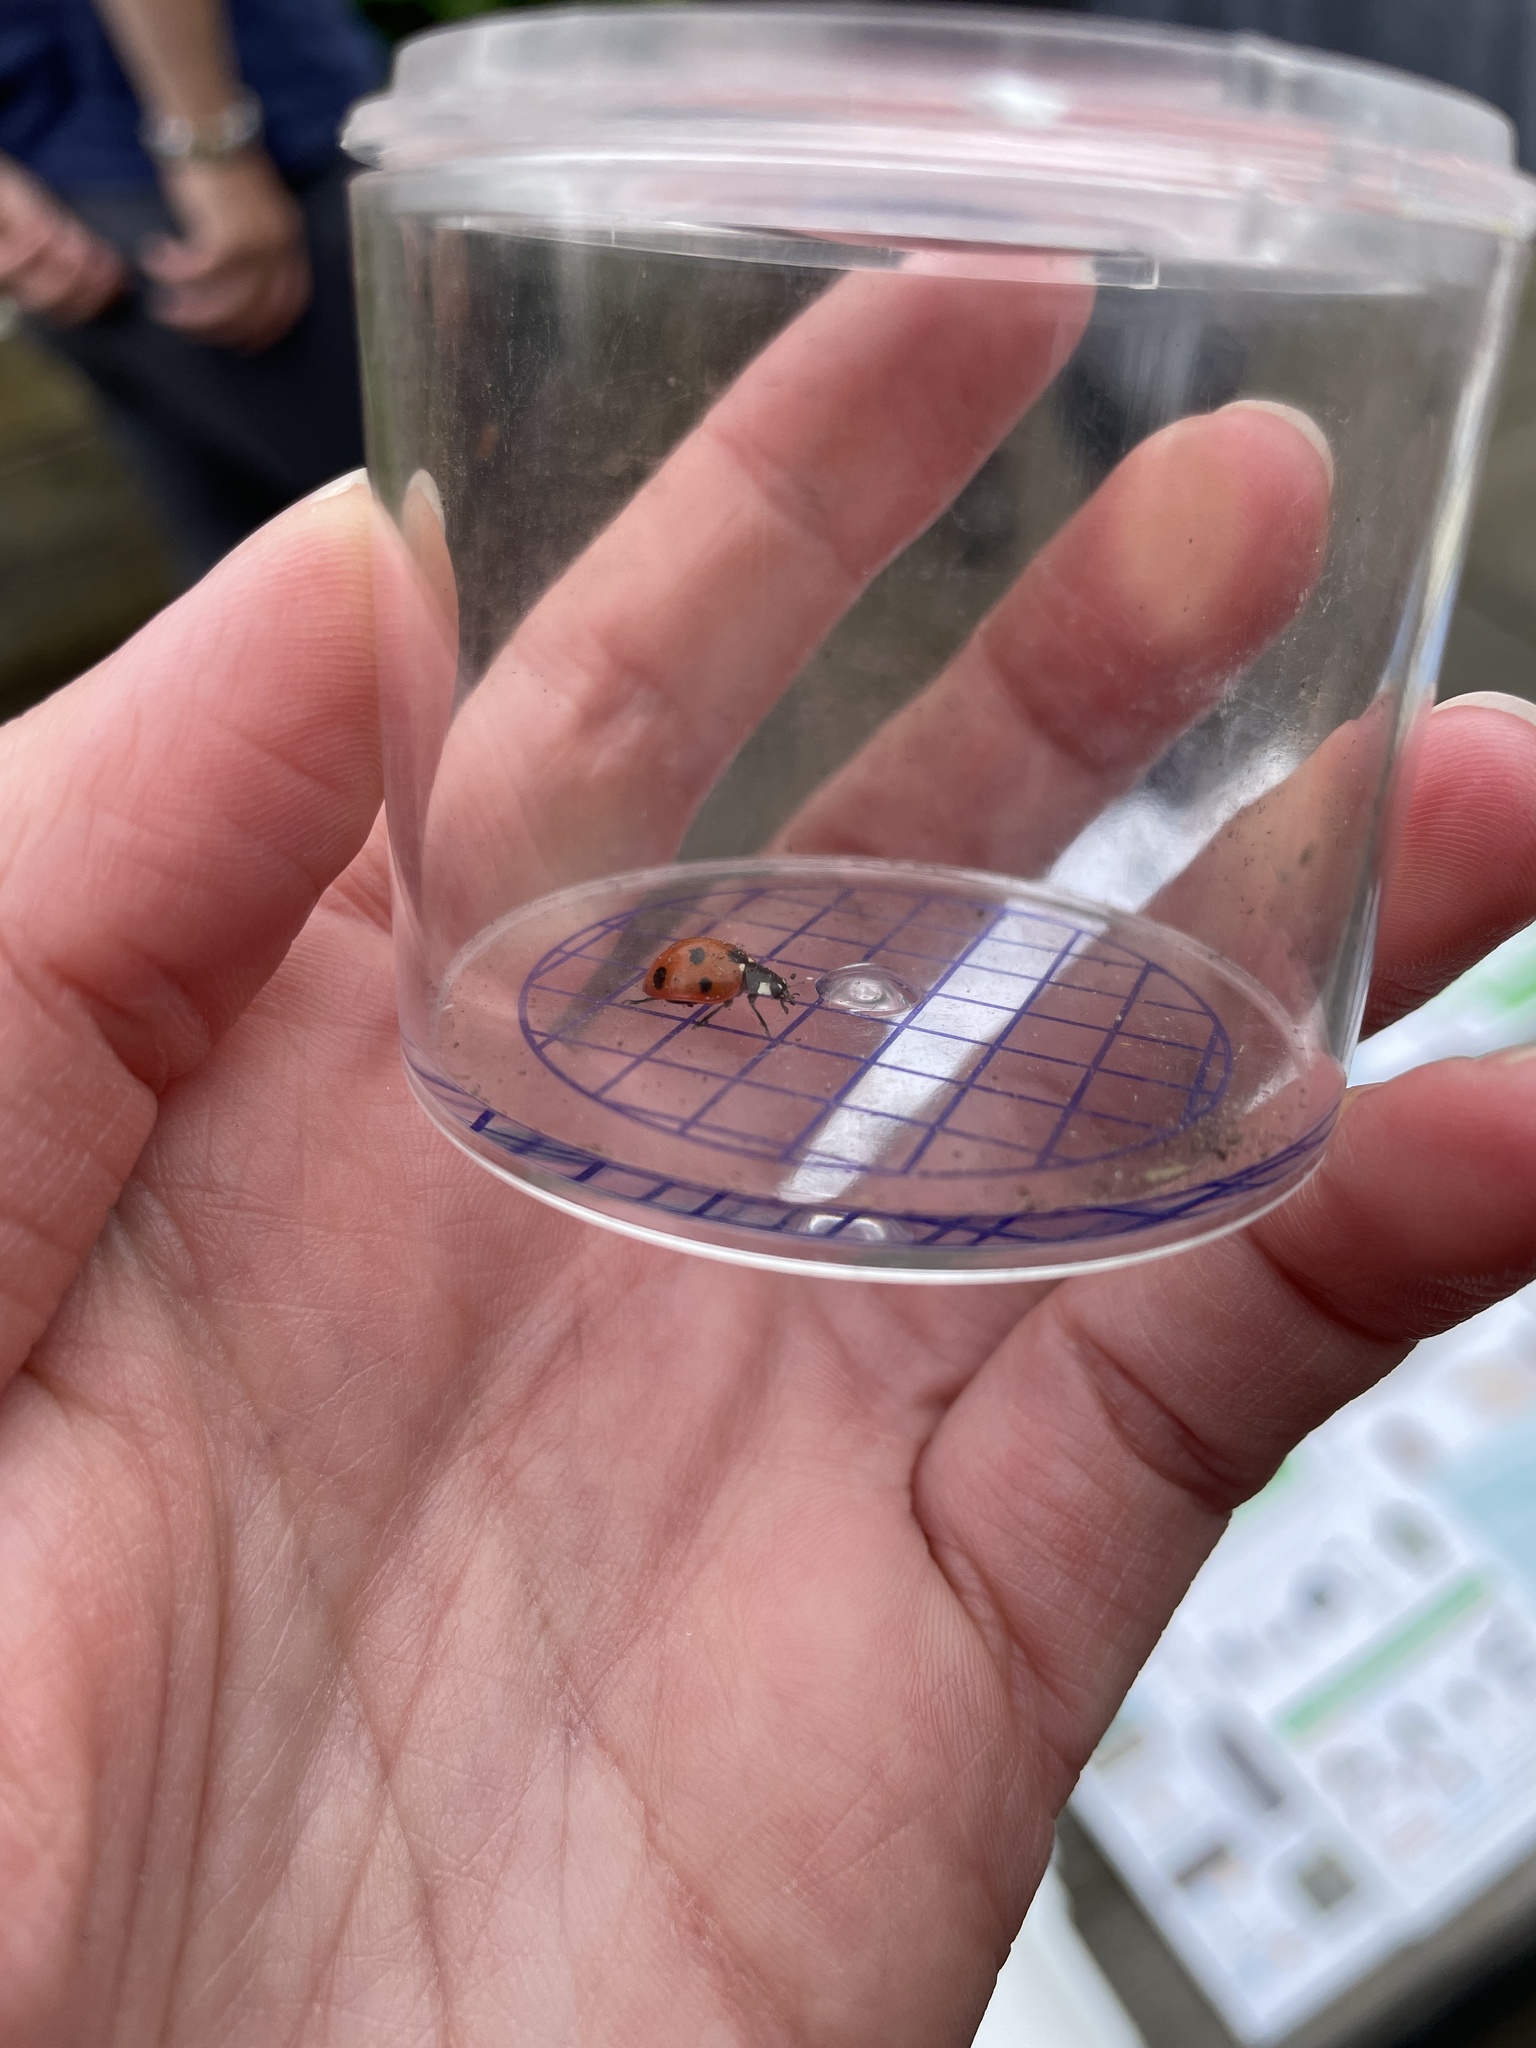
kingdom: Animalia
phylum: Arthropoda
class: Insecta
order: Coleoptera
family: Coccinellidae
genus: Coccinella
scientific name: Coccinella septempunctata
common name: Sevenspotted lady beetle
